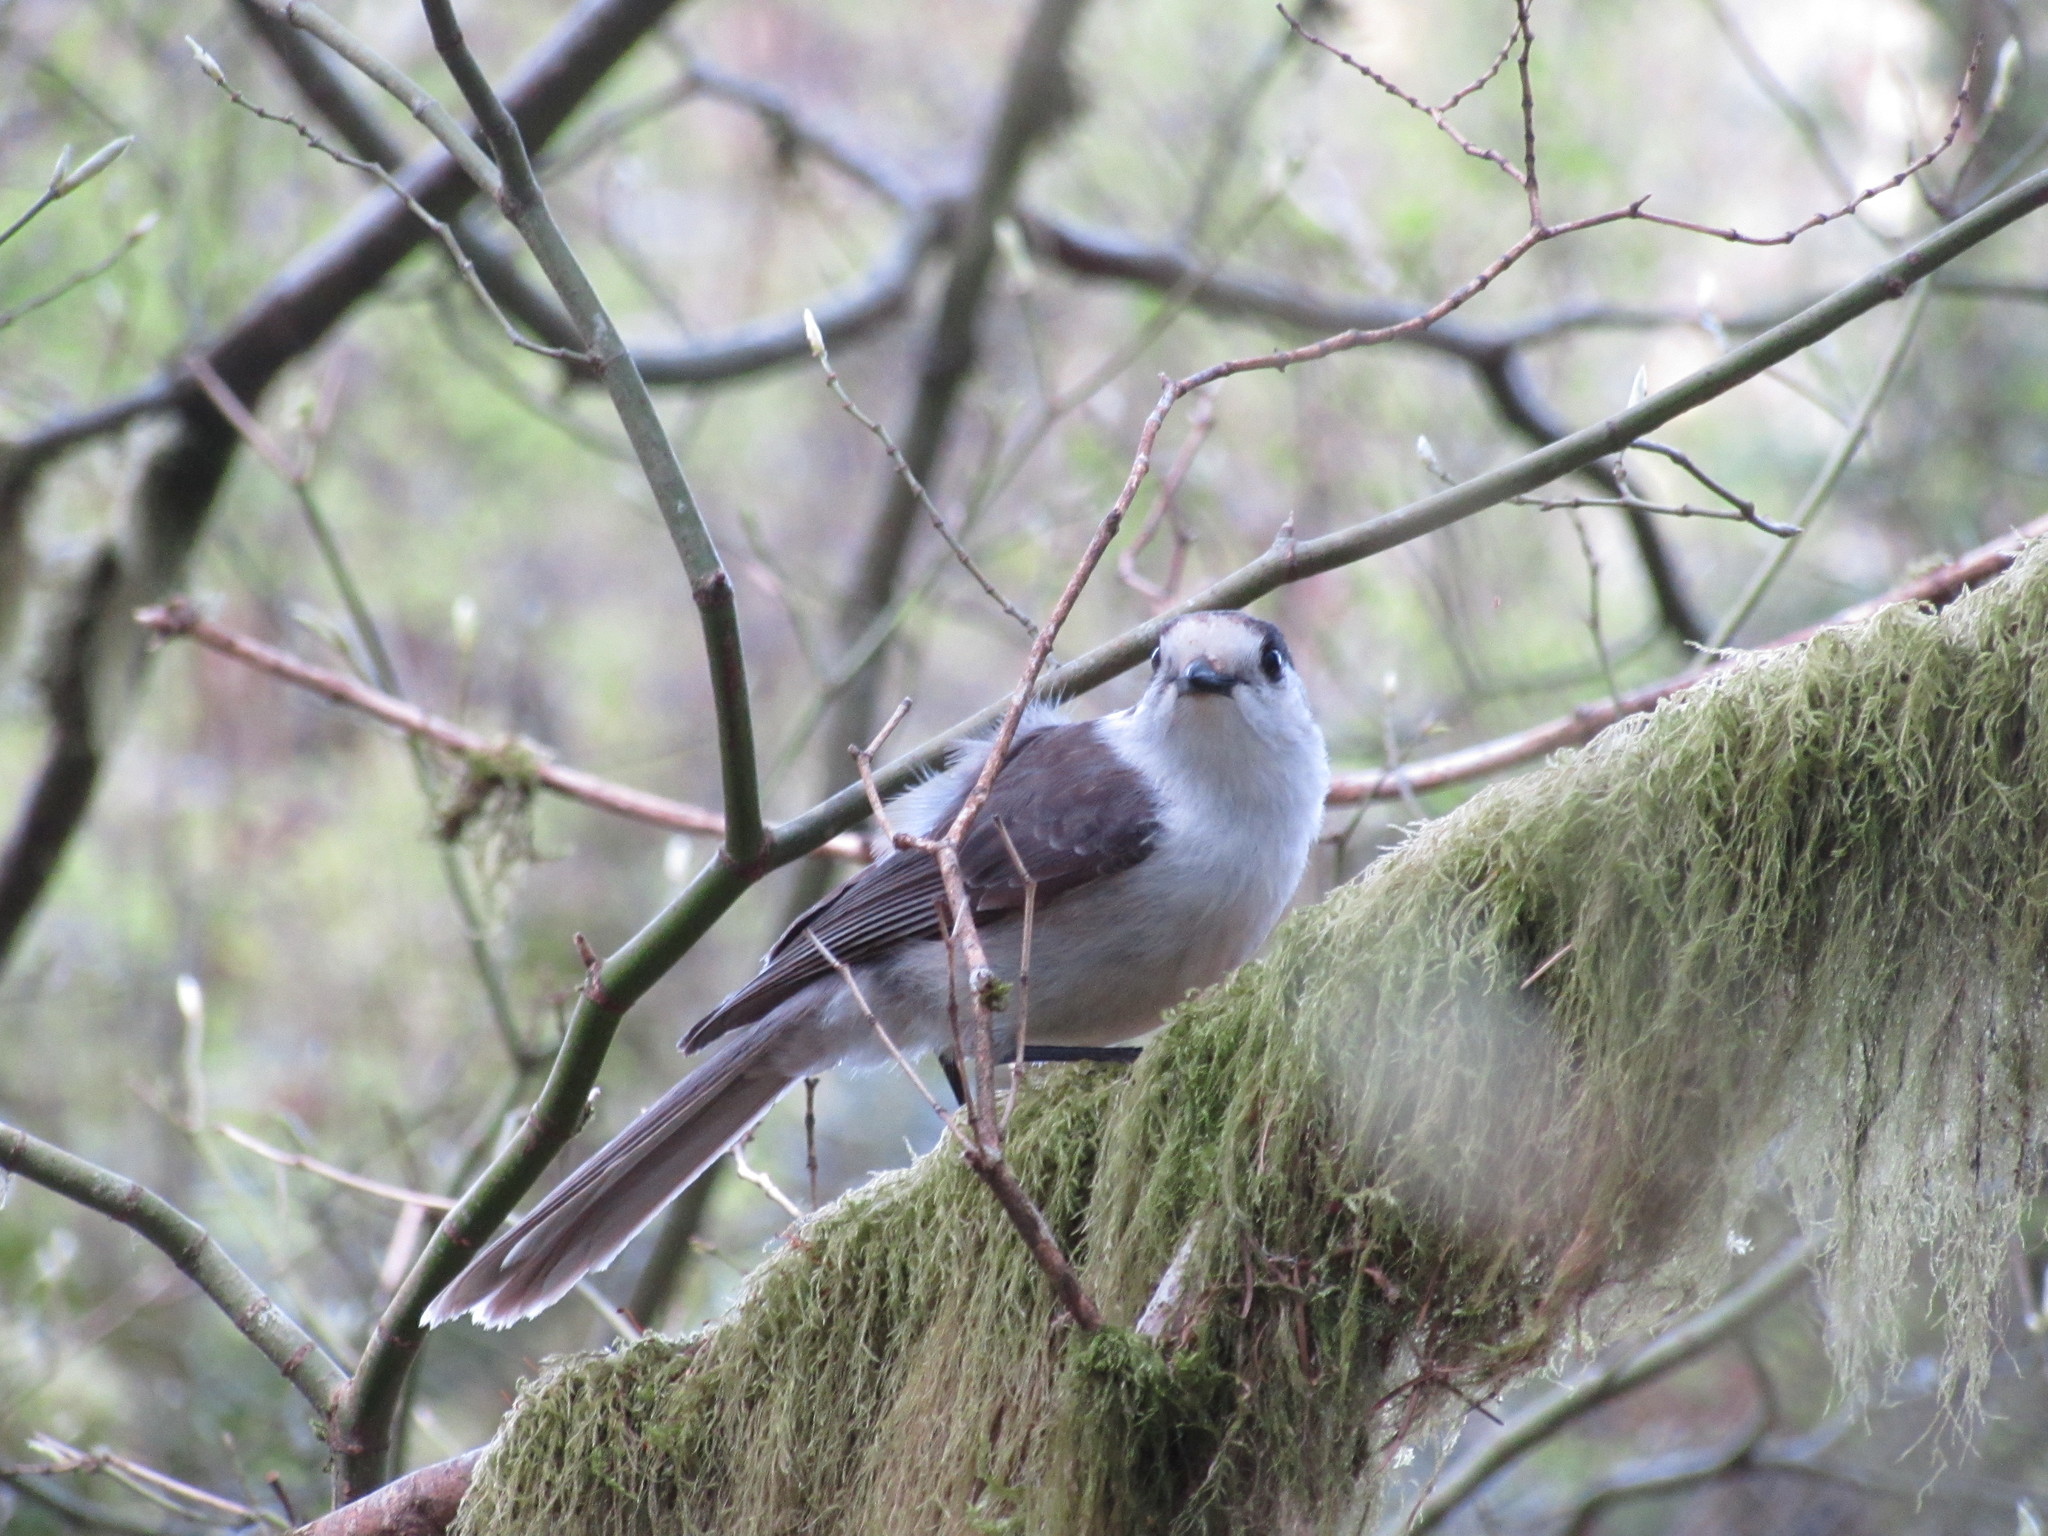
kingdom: Animalia
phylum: Chordata
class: Aves
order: Passeriformes
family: Corvidae
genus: Perisoreus
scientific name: Perisoreus canadensis
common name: Gray jay
